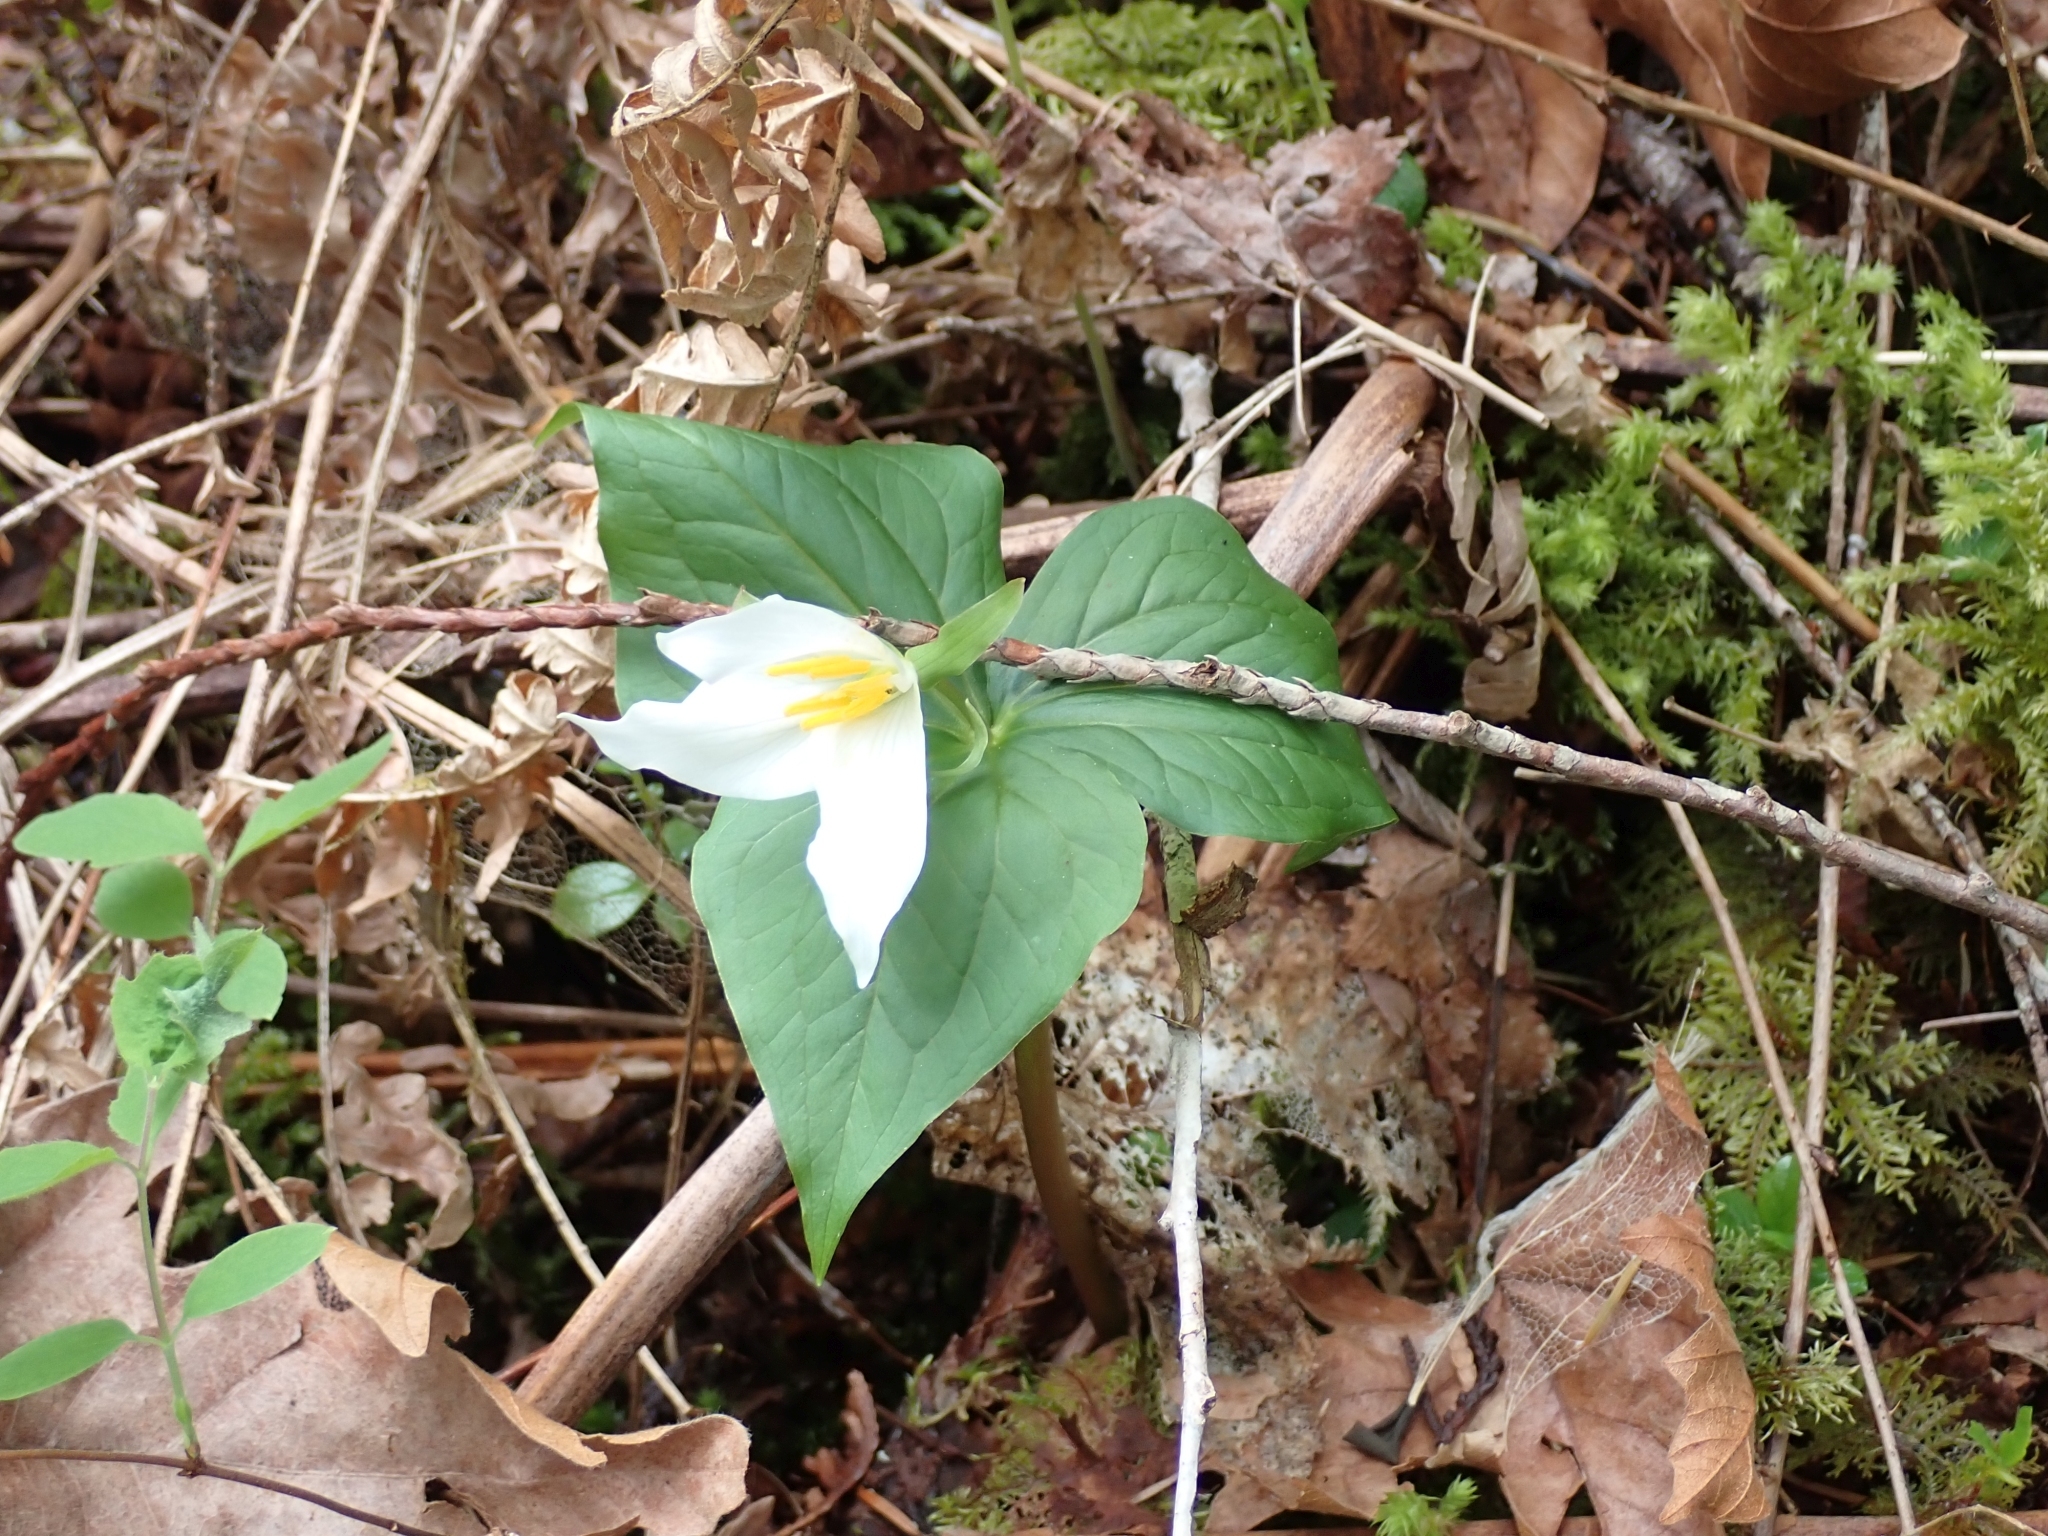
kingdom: Plantae
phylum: Tracheophyta
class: Liliopsida
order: Liliales
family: Melanthiaceae
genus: Trillium
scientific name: Trillium ovatum
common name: Pacific trillium
